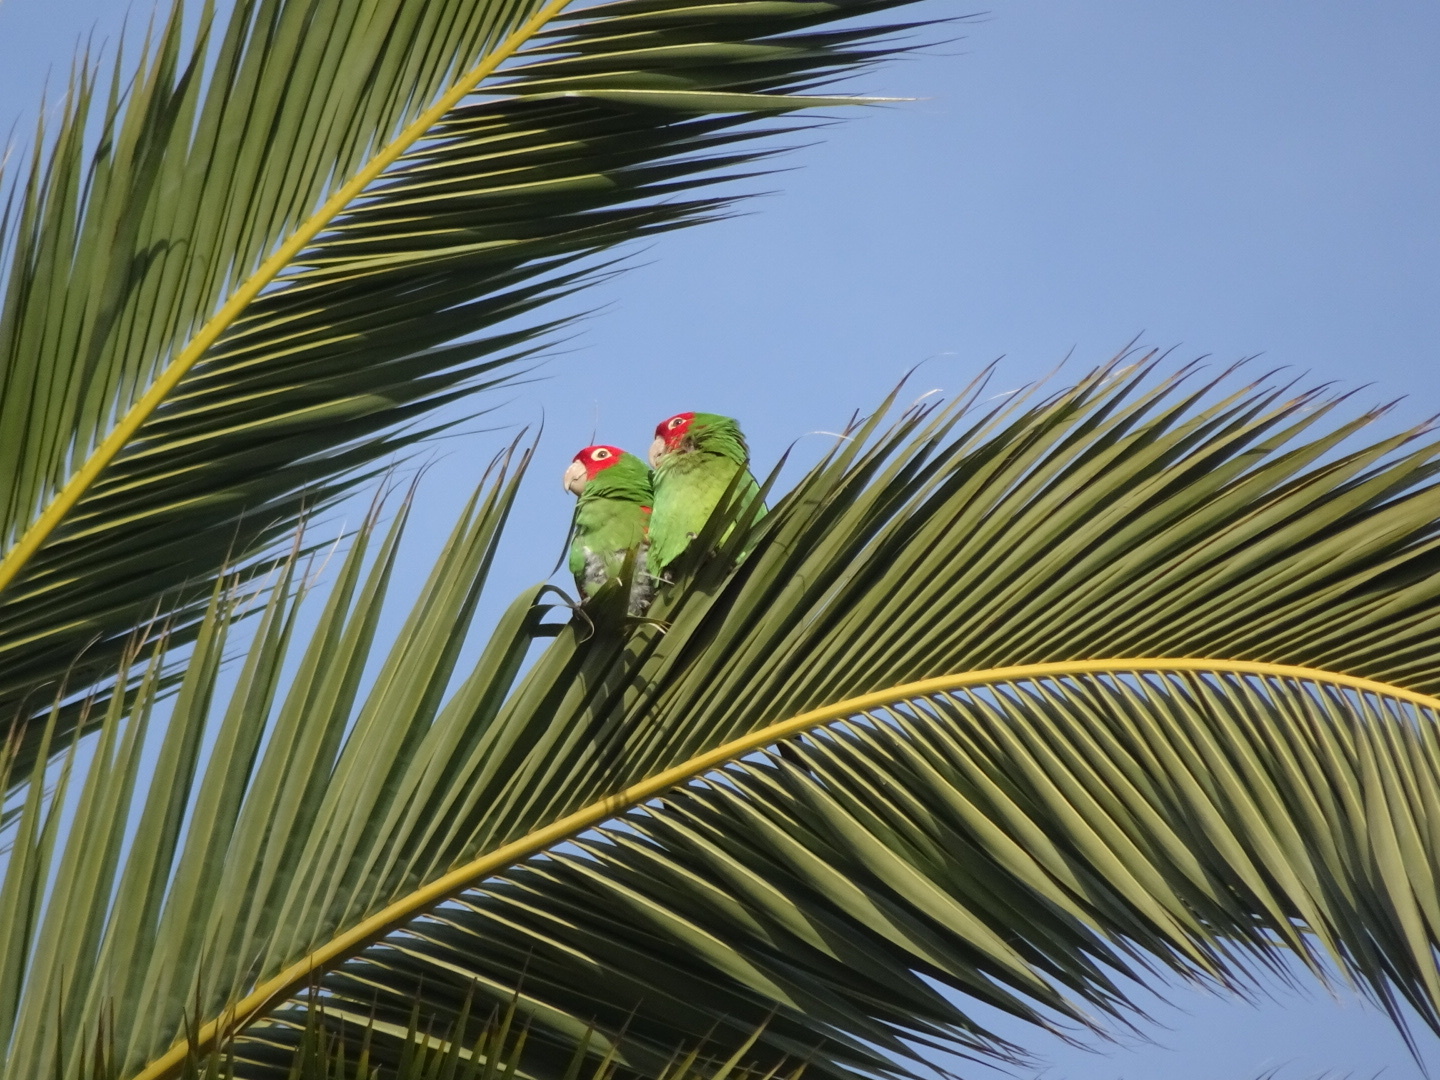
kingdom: Animalia
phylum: Chordata
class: Aves
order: Psittaciformes
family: Psittacidae
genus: Aratinga
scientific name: Aratinga erythrogenys
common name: Red-masked parakeet
